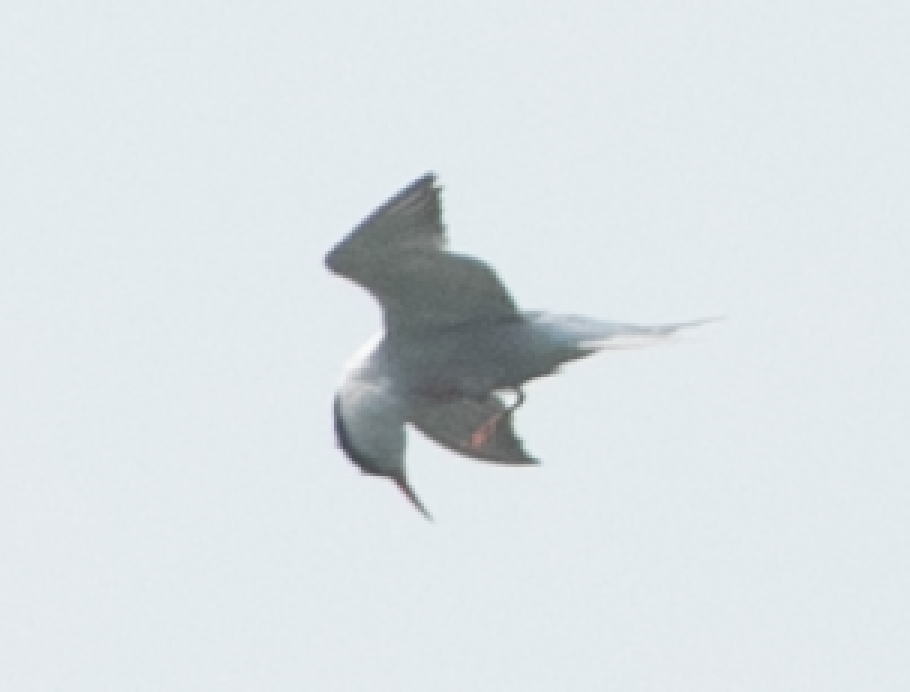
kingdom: Animalia
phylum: Chordata
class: Aves
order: Charadriiformes
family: Laridae
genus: Sterna
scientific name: Sterna hirundo
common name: Common tern
